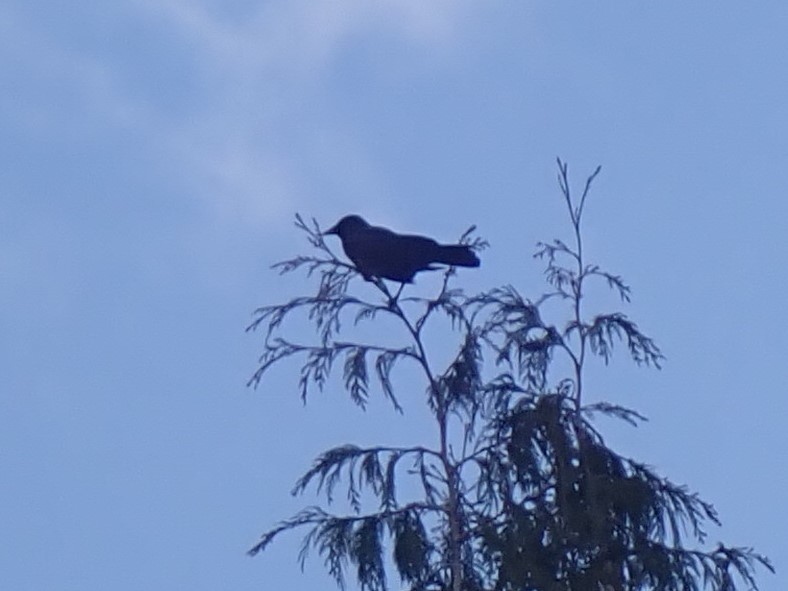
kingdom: Animalia
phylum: Chordata
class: Aves
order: Passeriformes
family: Corvidae
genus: Corvus
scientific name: Corvus brachyrhynchos
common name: American crow
